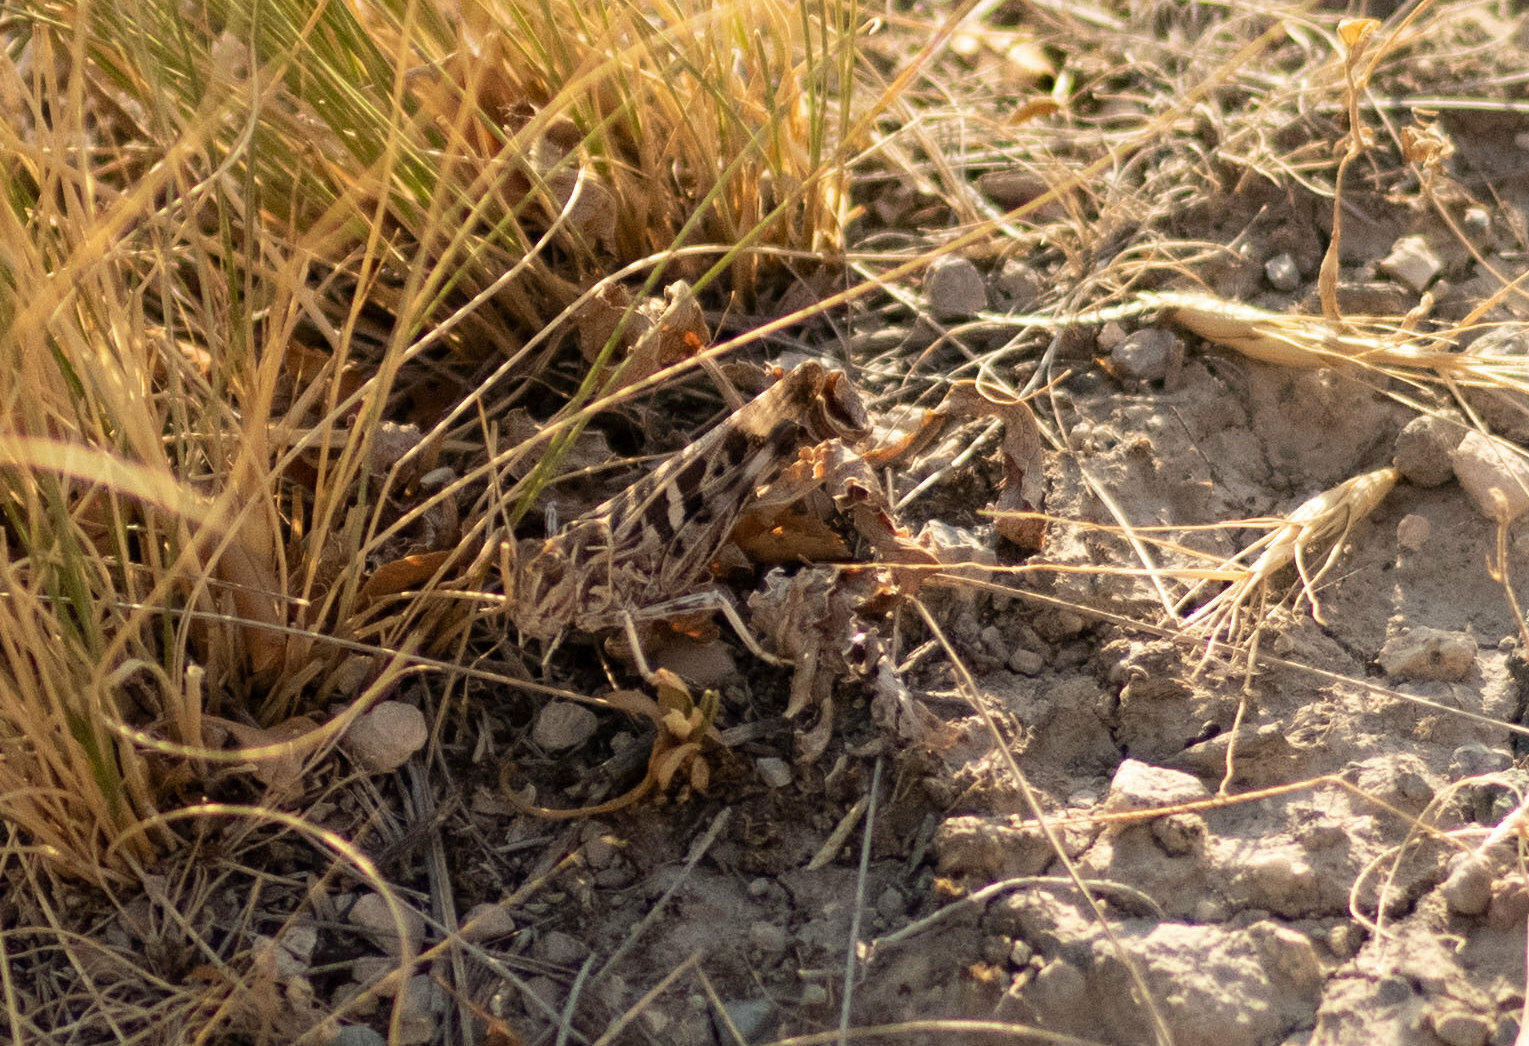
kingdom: Animalia
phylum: Arthropoda
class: Insecta
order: Orthoptera
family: Acrididae
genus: Oedaleus
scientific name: Oedaleus decorus
